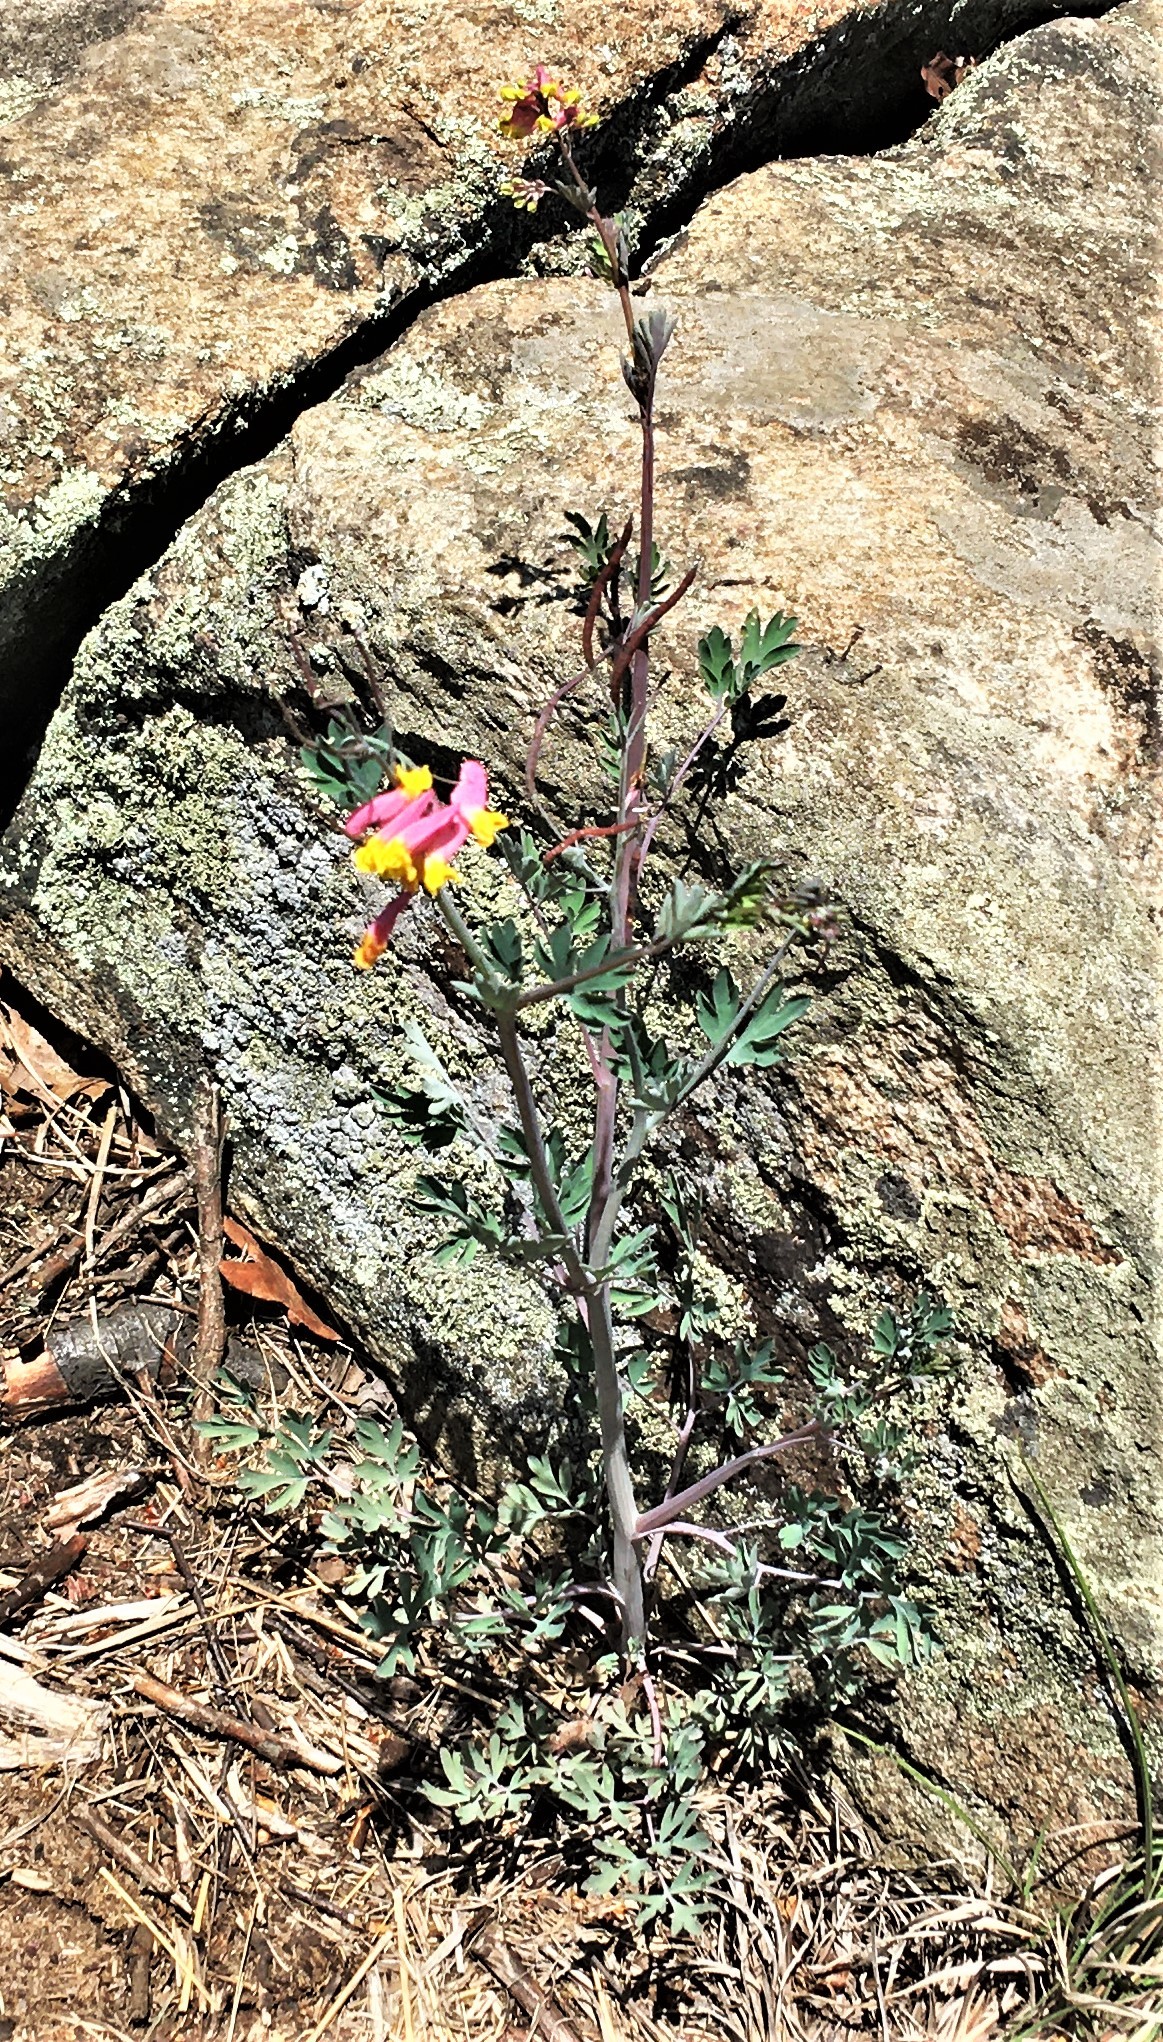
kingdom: Plantae
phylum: Tracheophyta
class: Magnoliopsida
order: Ranunculales
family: Papaveraceae
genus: Capnoides
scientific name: Capnoides sempervirens
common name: Rock harlequin
